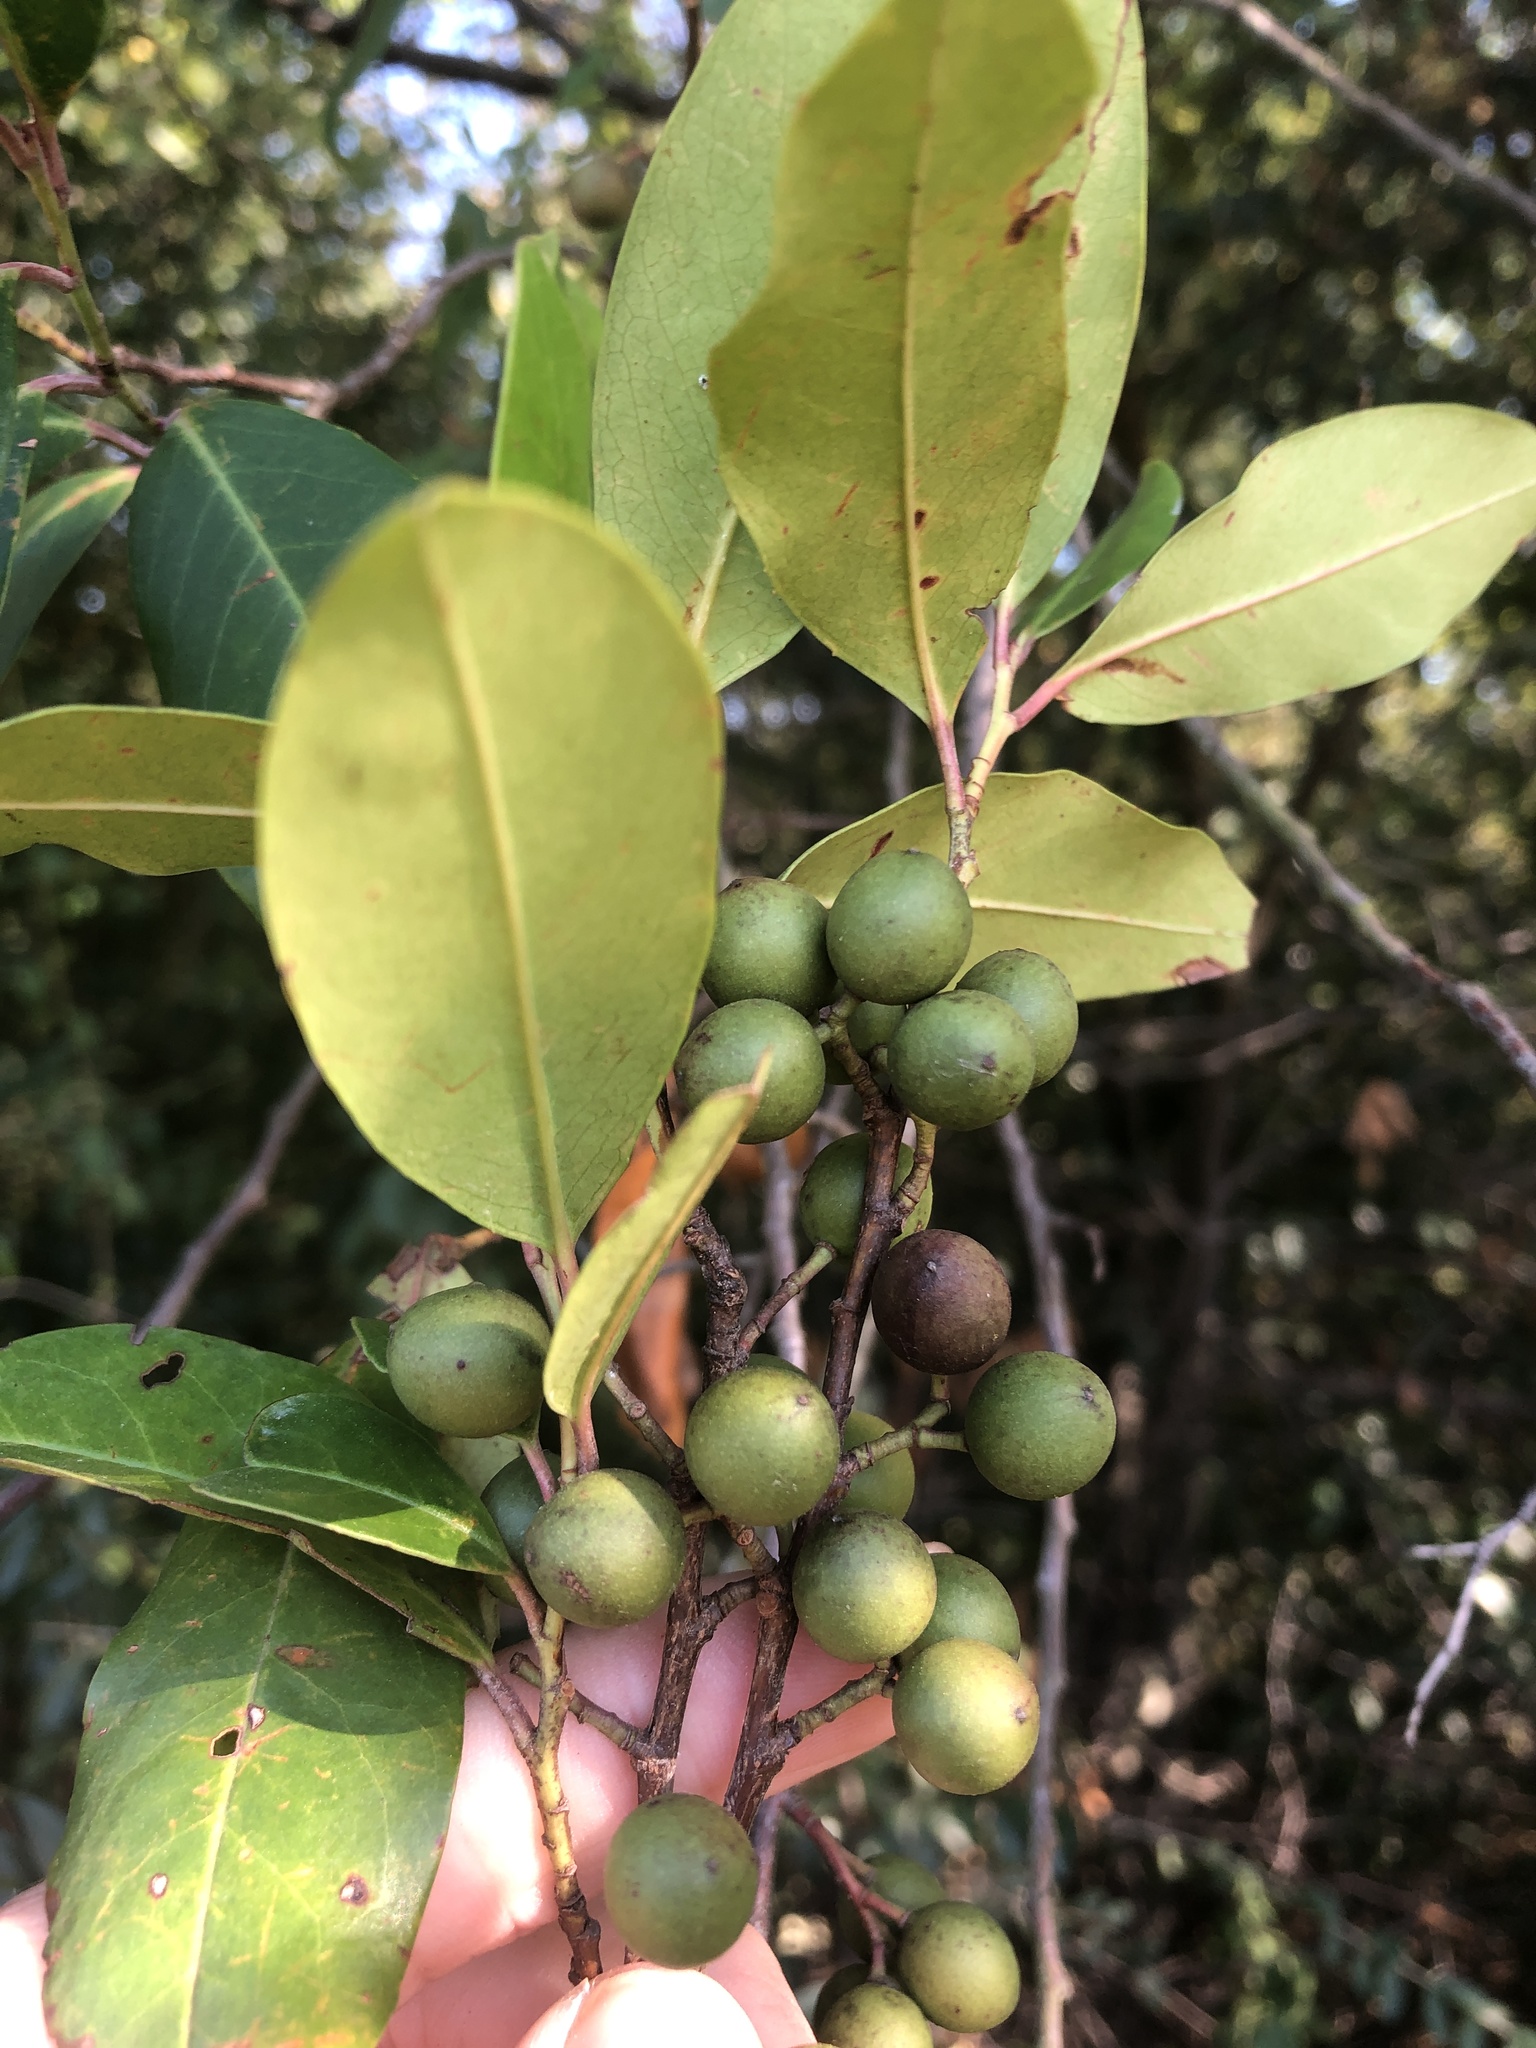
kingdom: Plantae
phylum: Tracheophyta
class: Magnoliopsida
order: Rosales
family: Rosaceae
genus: Prunus
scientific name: Prunus caroliniana
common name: Carolina laurel cherry
